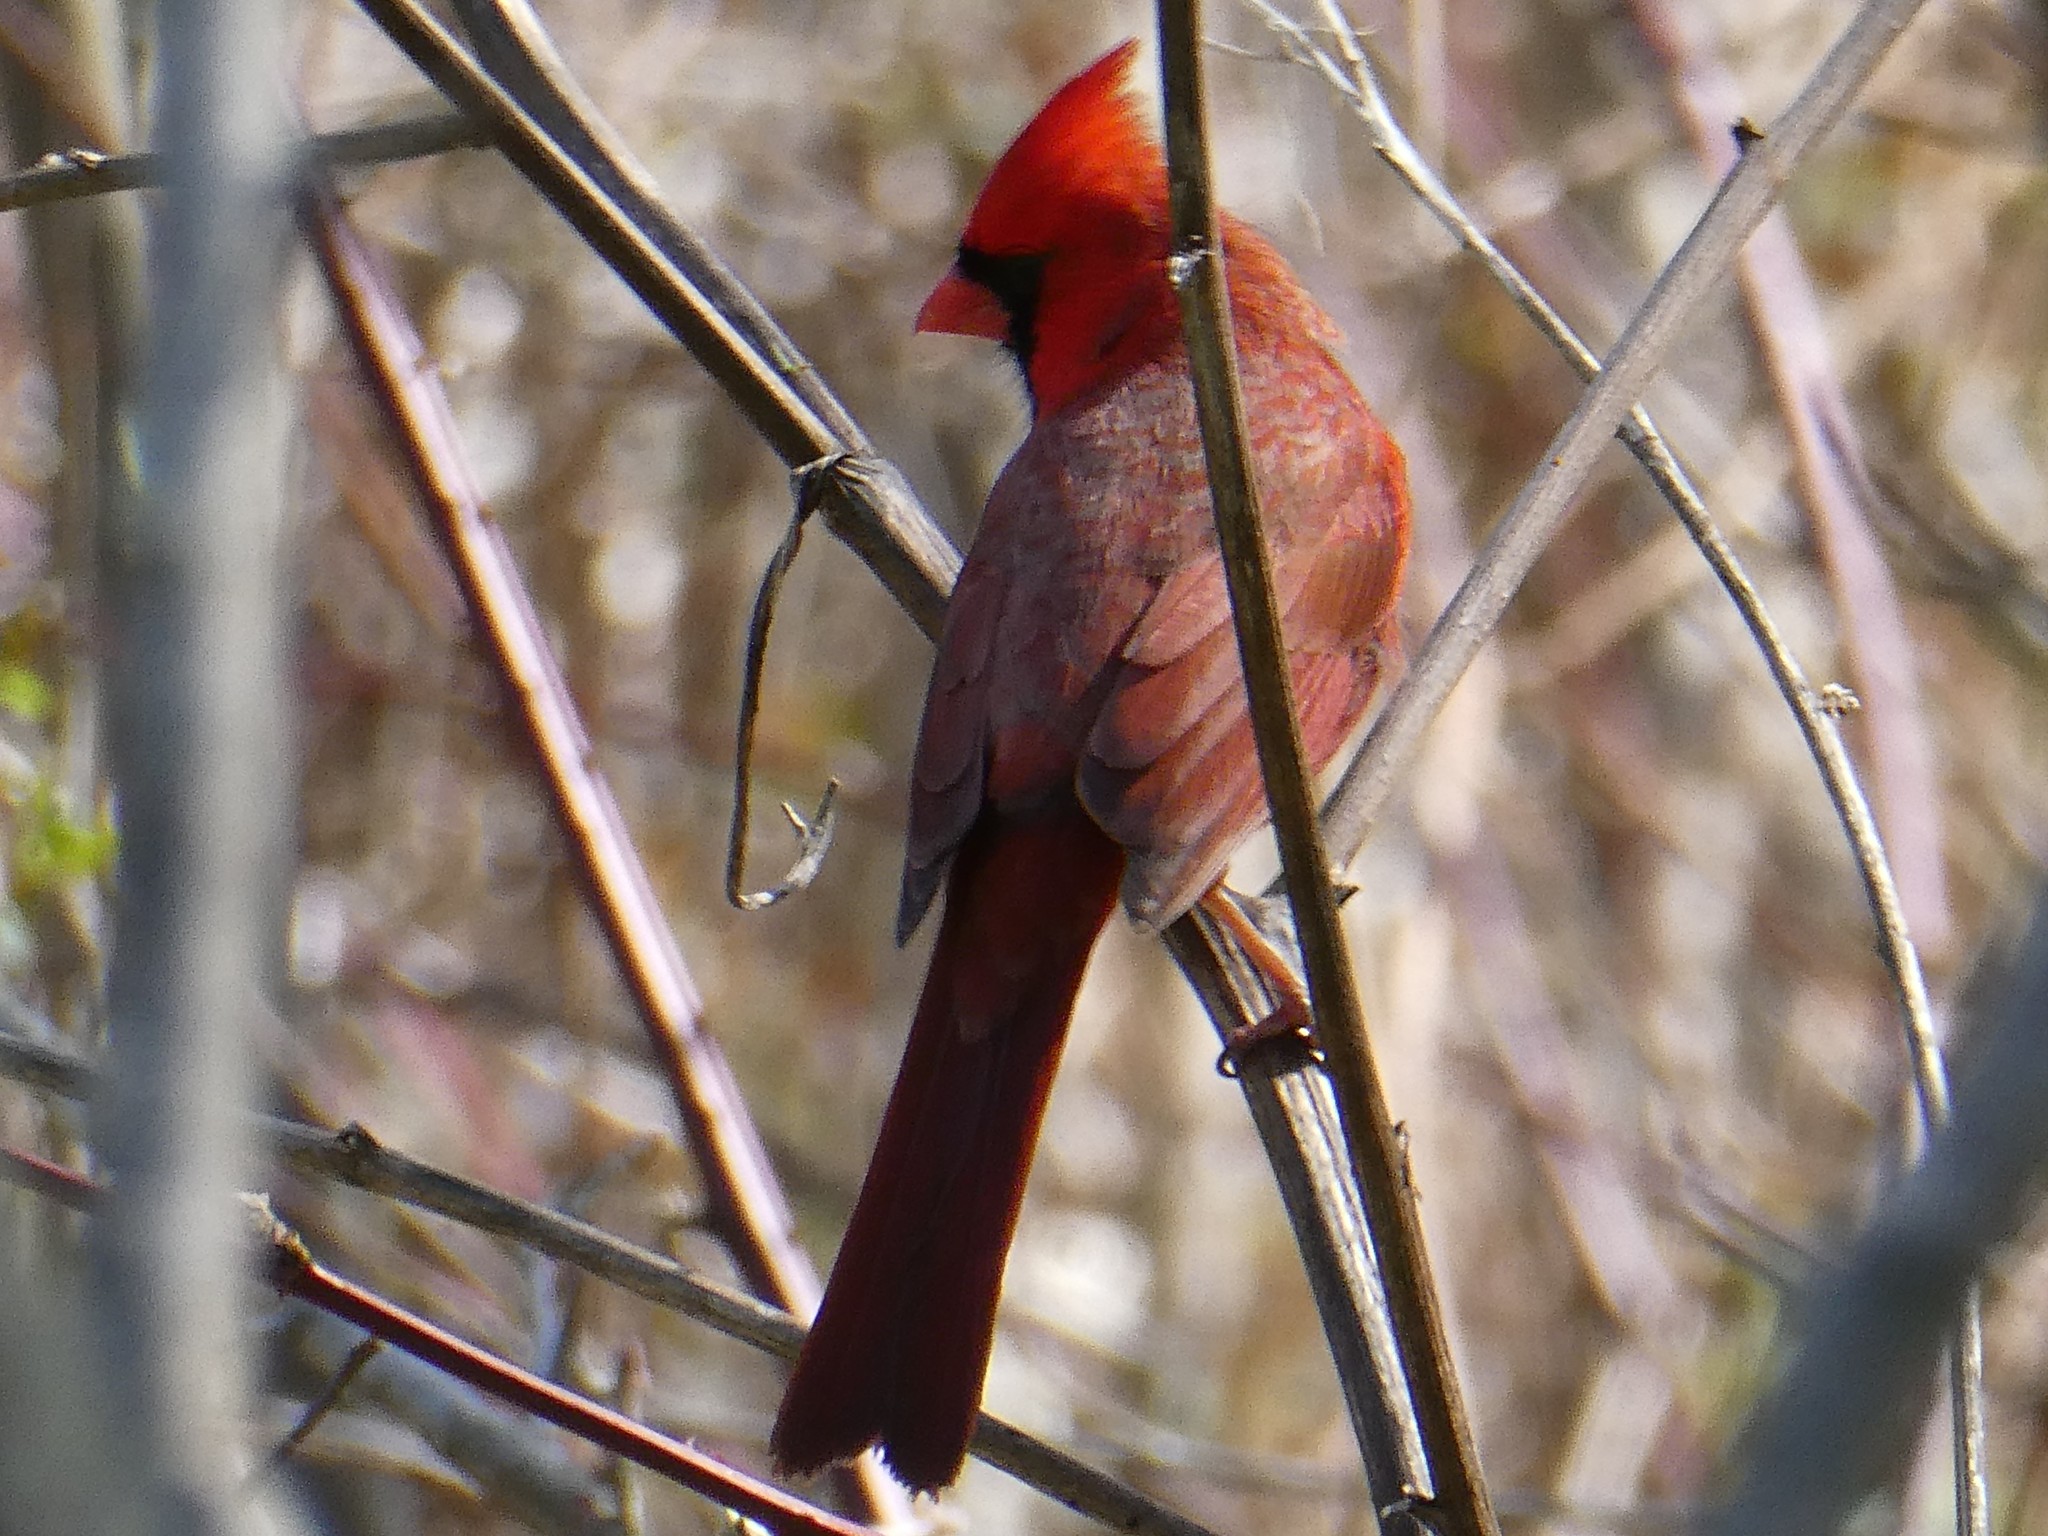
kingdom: Animalia
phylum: Chordata
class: Aves
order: Passeriformes
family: Cardinalidae
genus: Cardinalis
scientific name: Cardinalis cardinalis
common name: Northern cardinal
